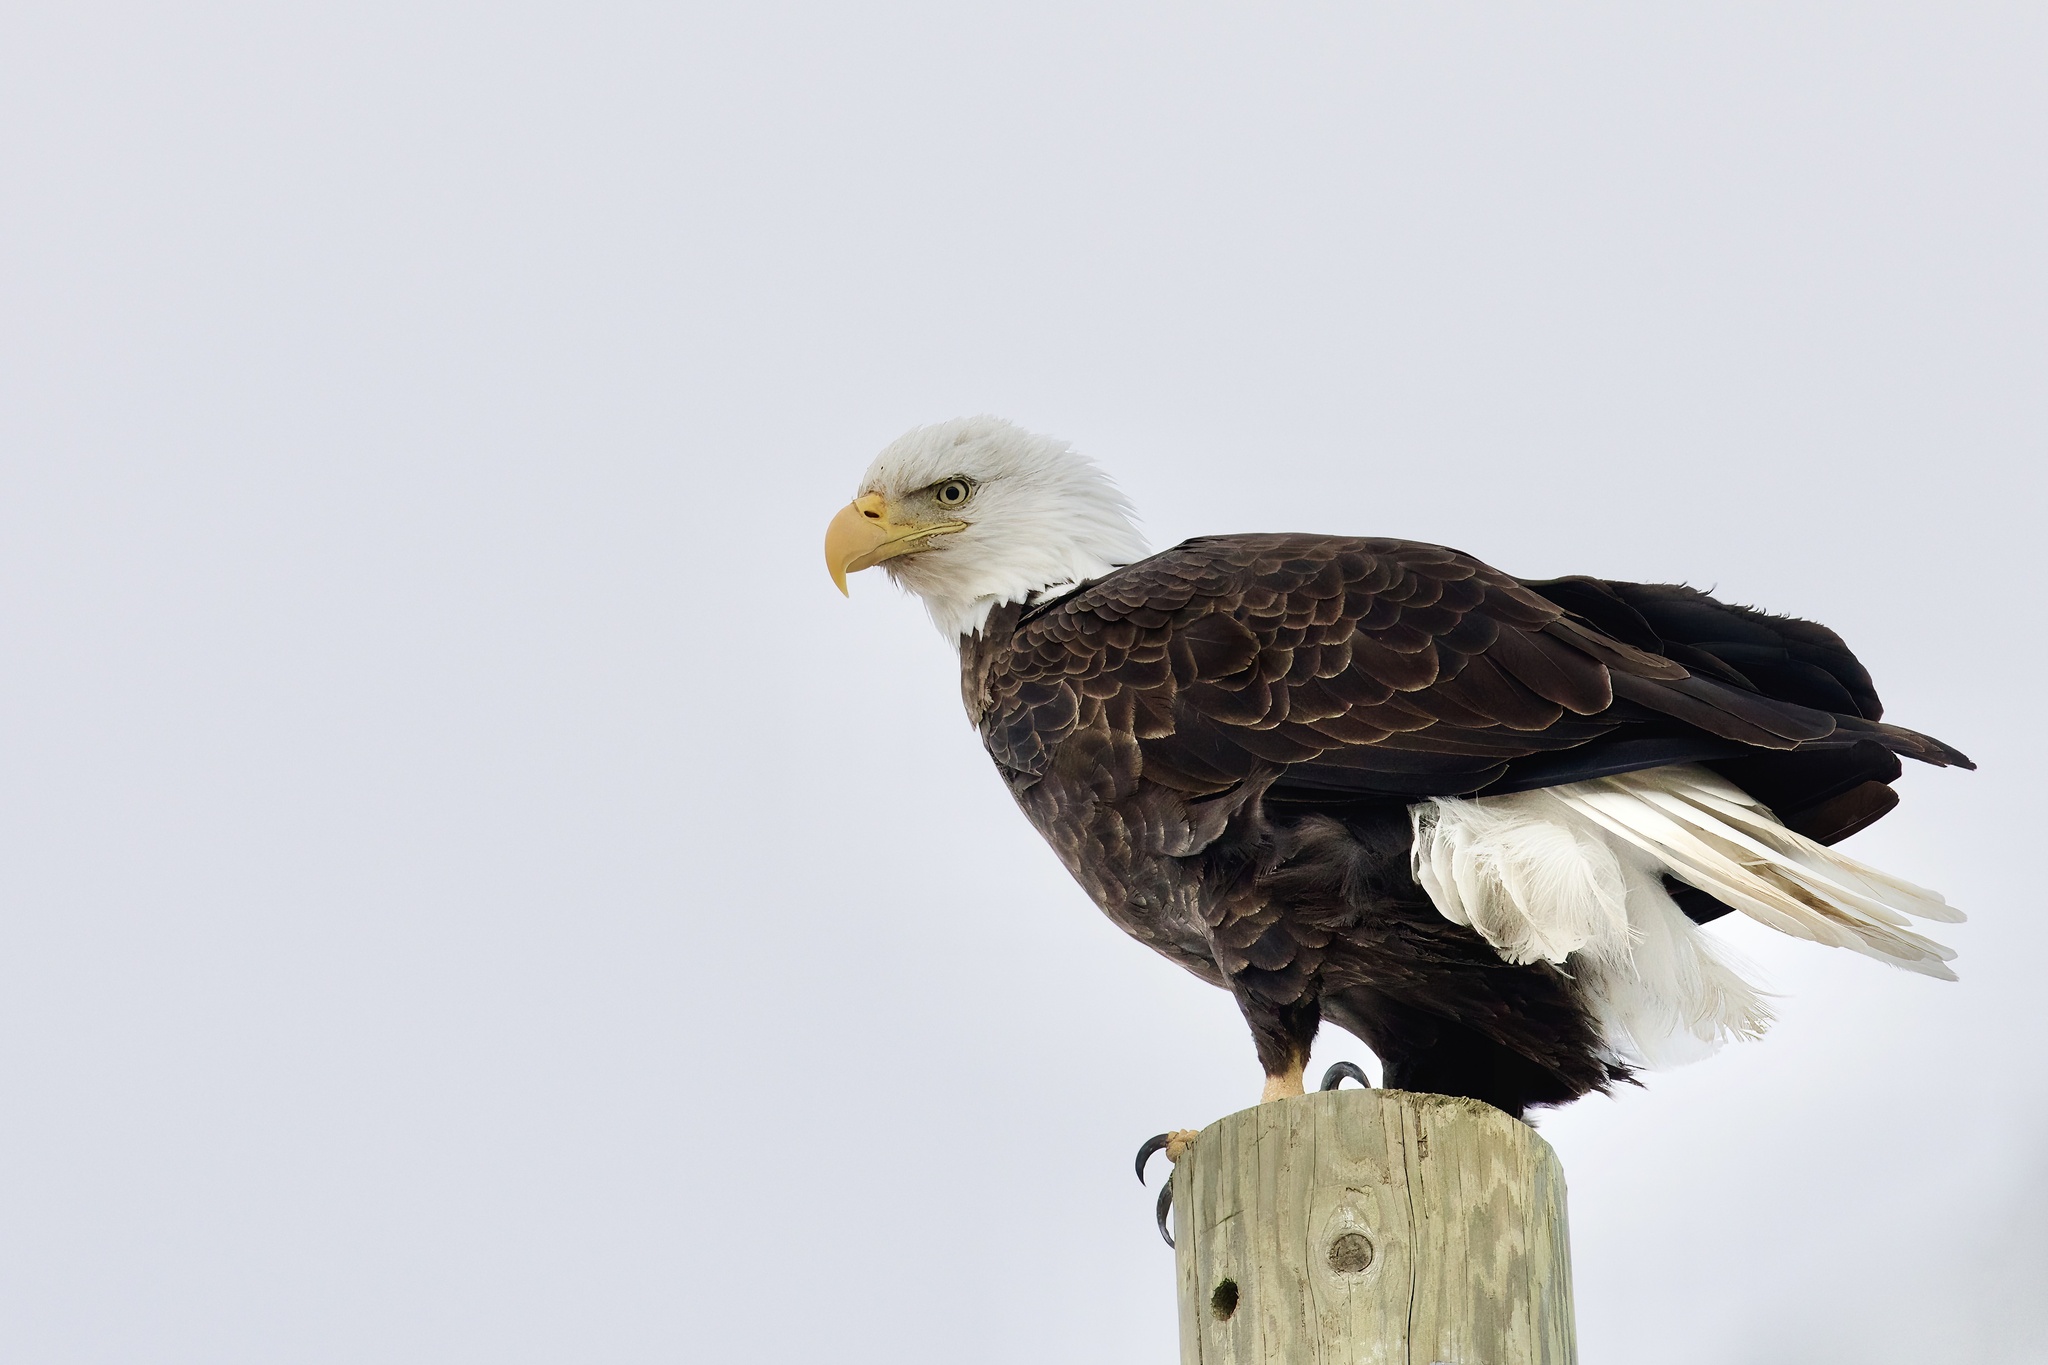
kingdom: Animalia
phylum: Chordata
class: Aves
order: Accipitriformes
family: Accipitridae
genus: Haliaeetus
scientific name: Haliaeetus leucocephalus
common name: Bald eagle
